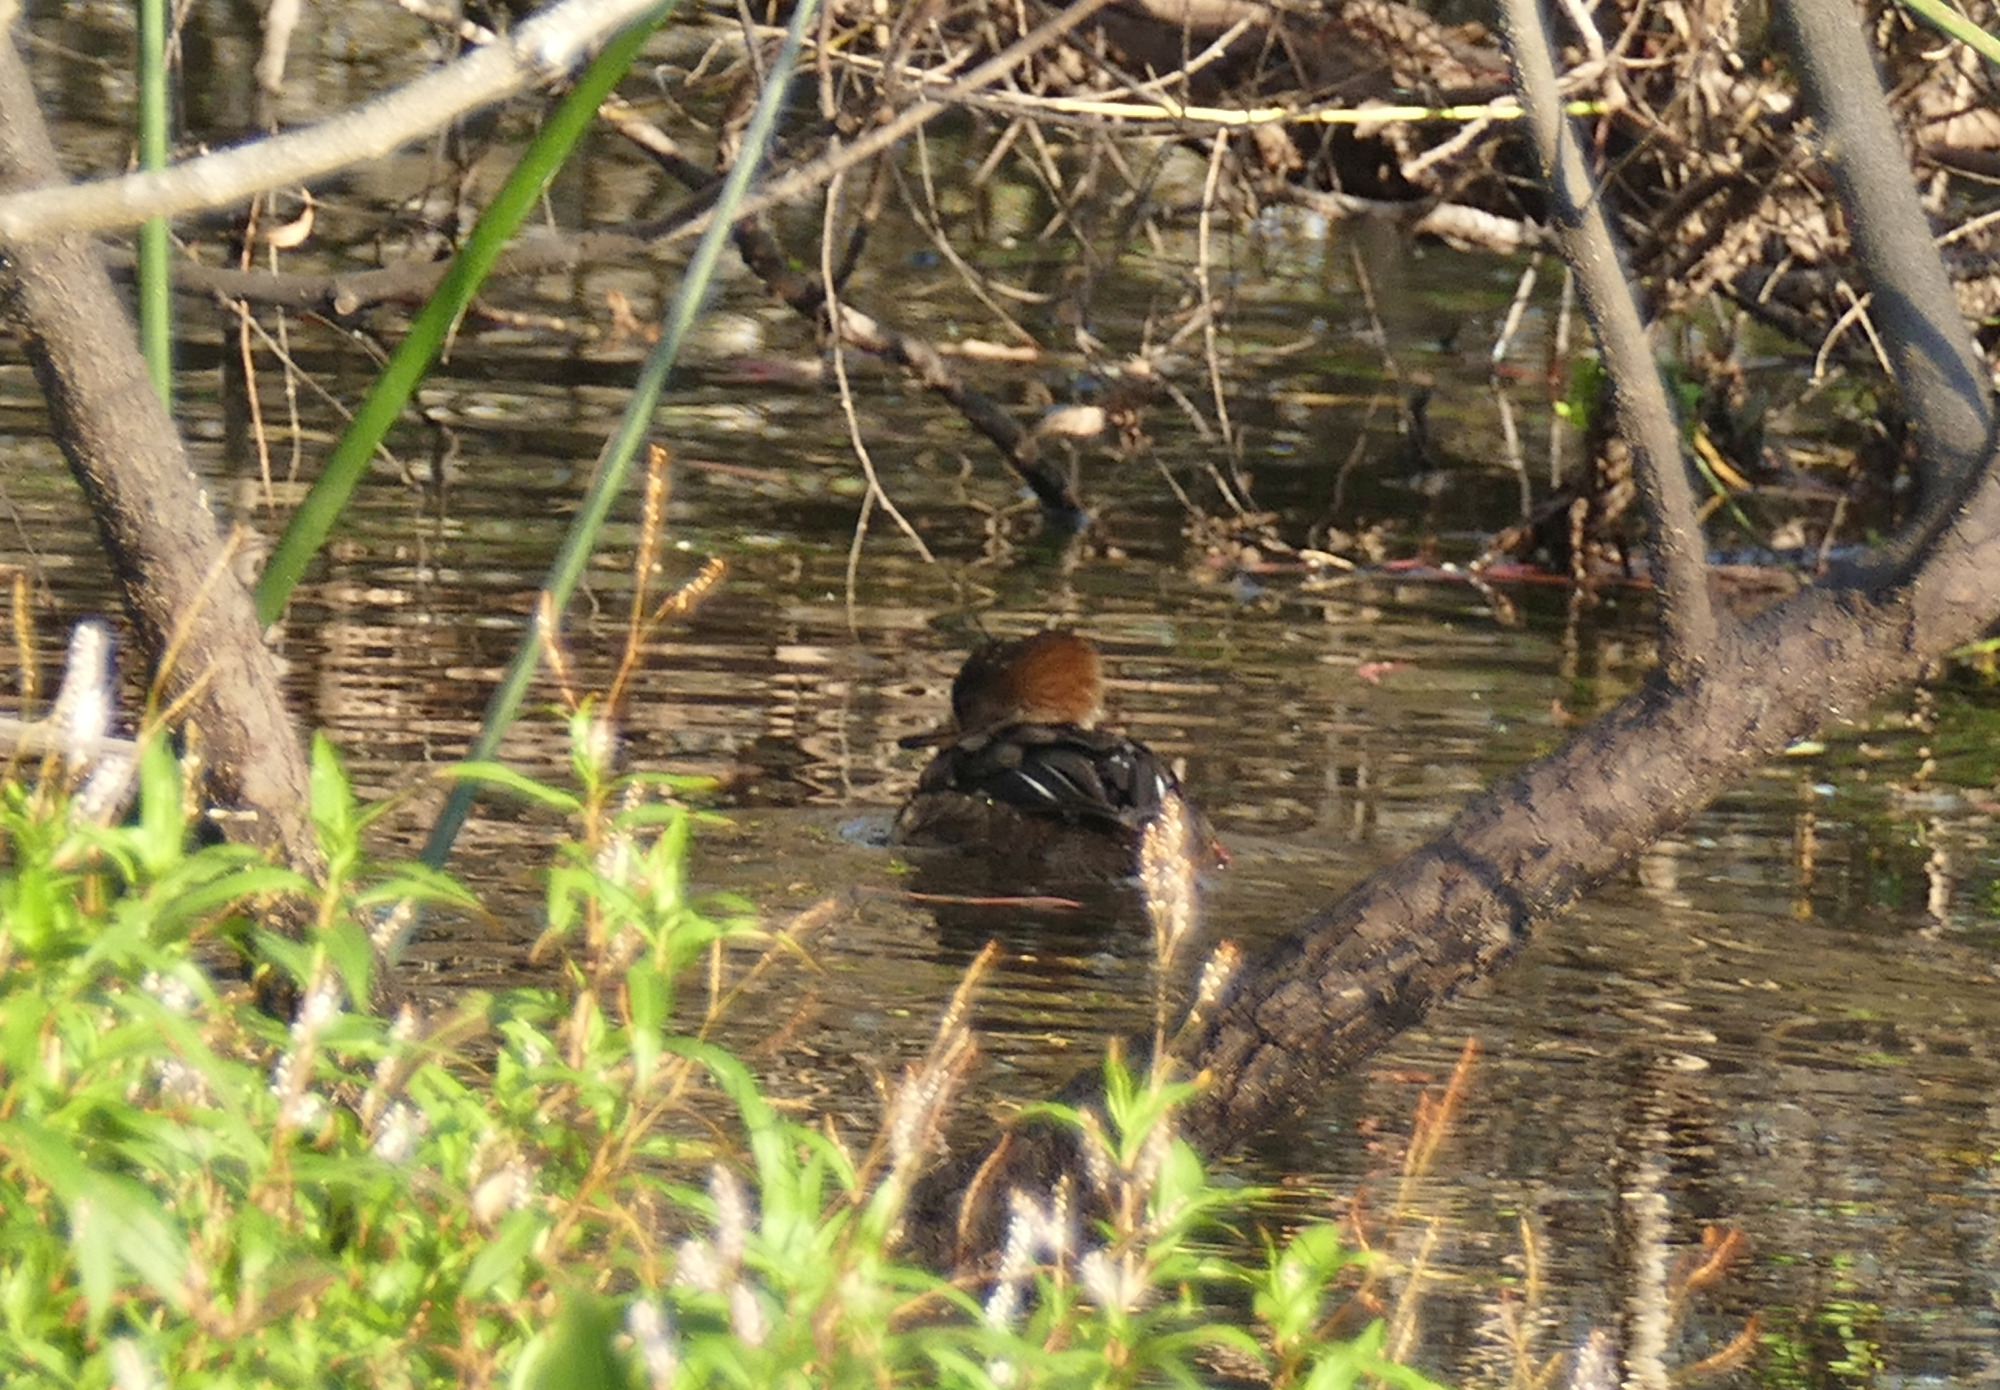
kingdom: Animalia
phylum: Chordata
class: Aves
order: Anseriformes
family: Anatidae
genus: Lophodytes
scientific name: Lophodytes cucullatus
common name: Hooded merganser
